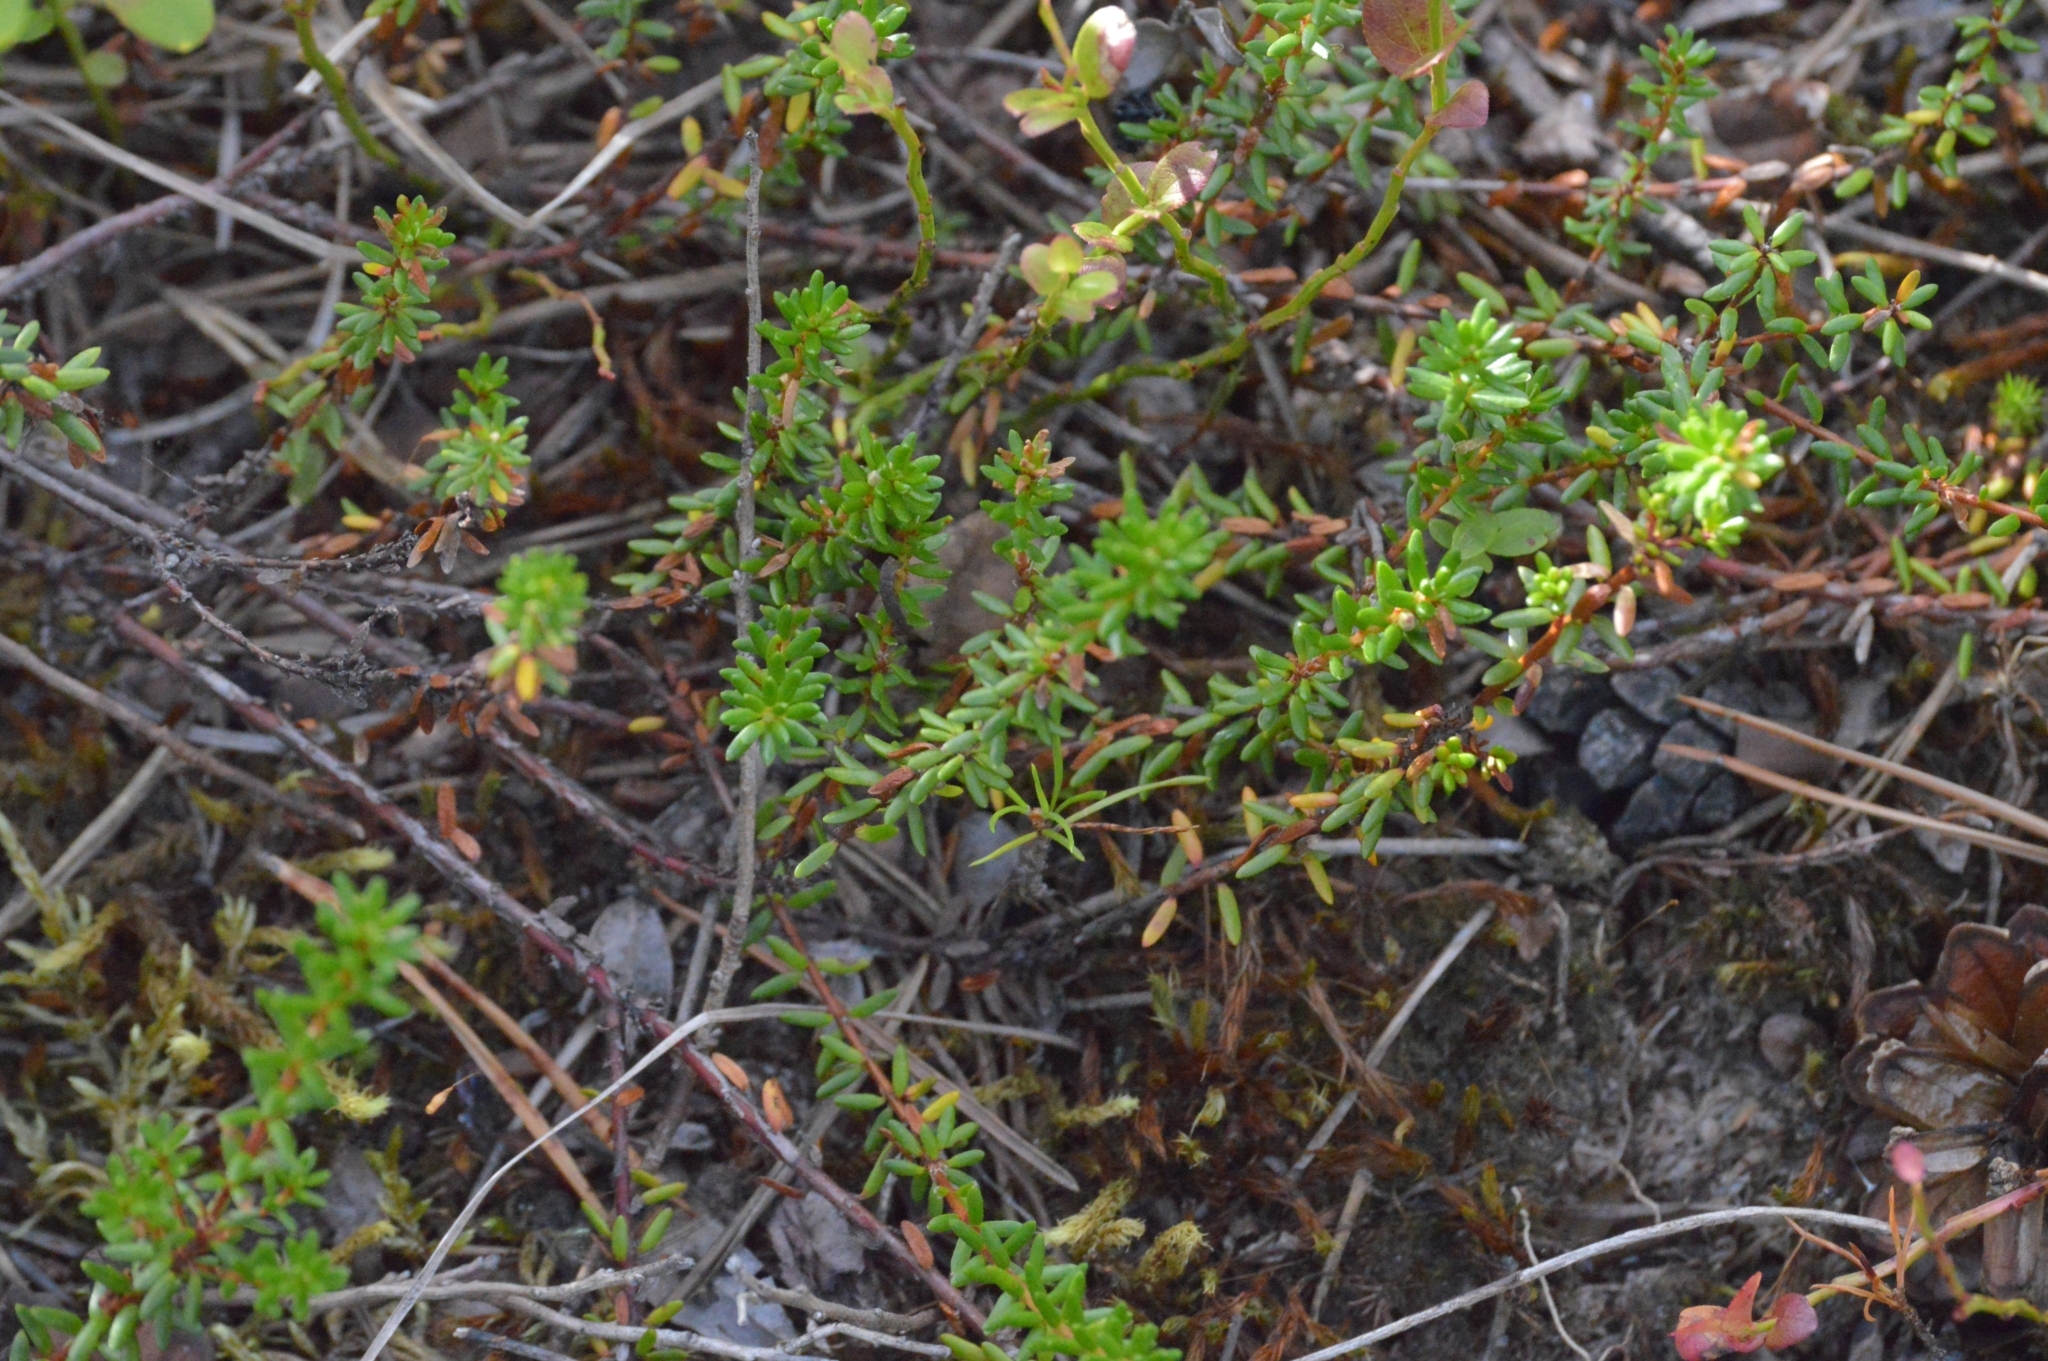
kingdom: Plantae
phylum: Tracheophyta
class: Magnoliopsida
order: Ericales
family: Ericaceae
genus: Empetrum
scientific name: Empetrum nigrum
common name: Black crowberry
